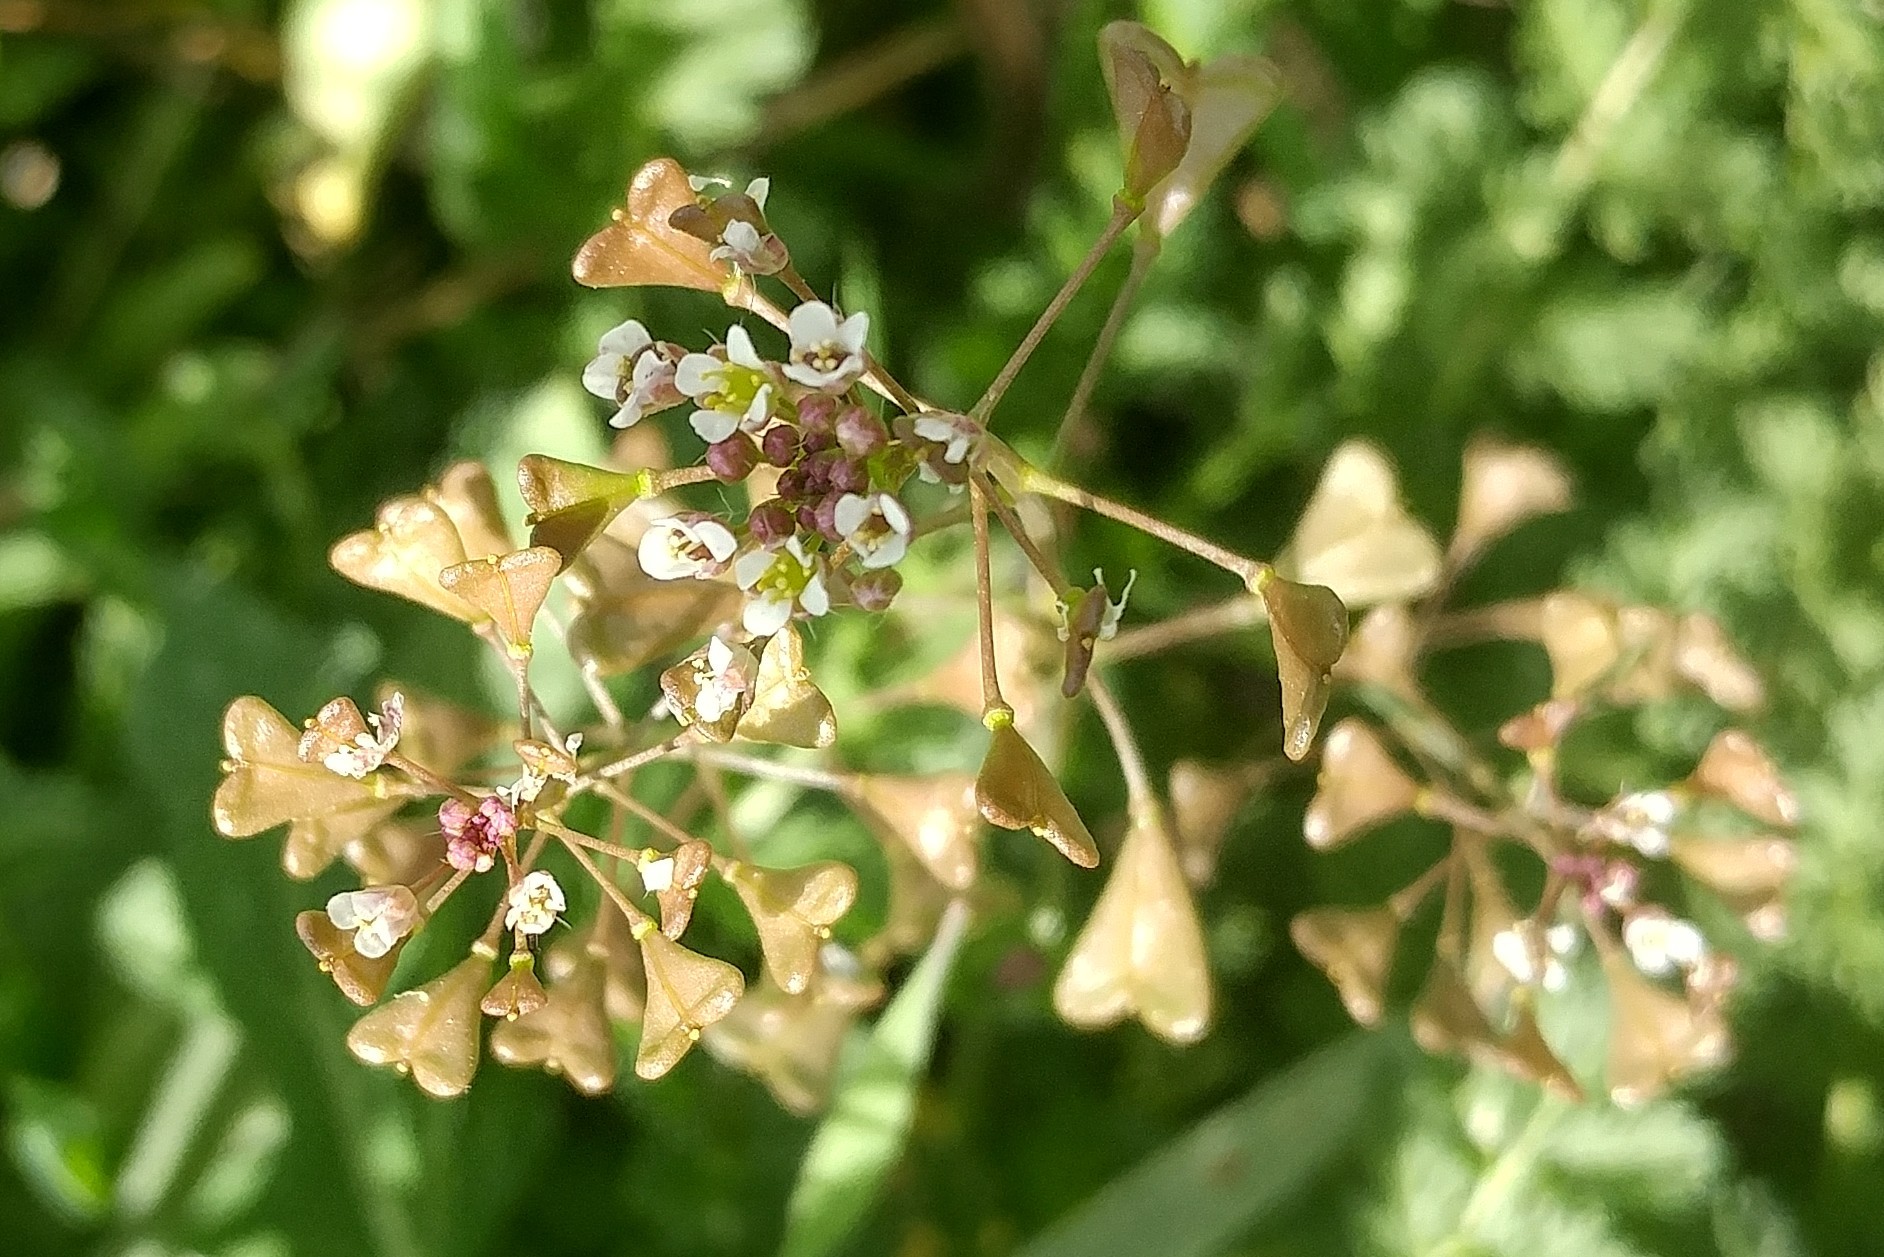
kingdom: Plantae
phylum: Tracheophyta
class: Magnoliopsida
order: Brassicales
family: Brassicaceae
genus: Capsella
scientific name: Capsella bursa-pastoris
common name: Shepherd's purse
